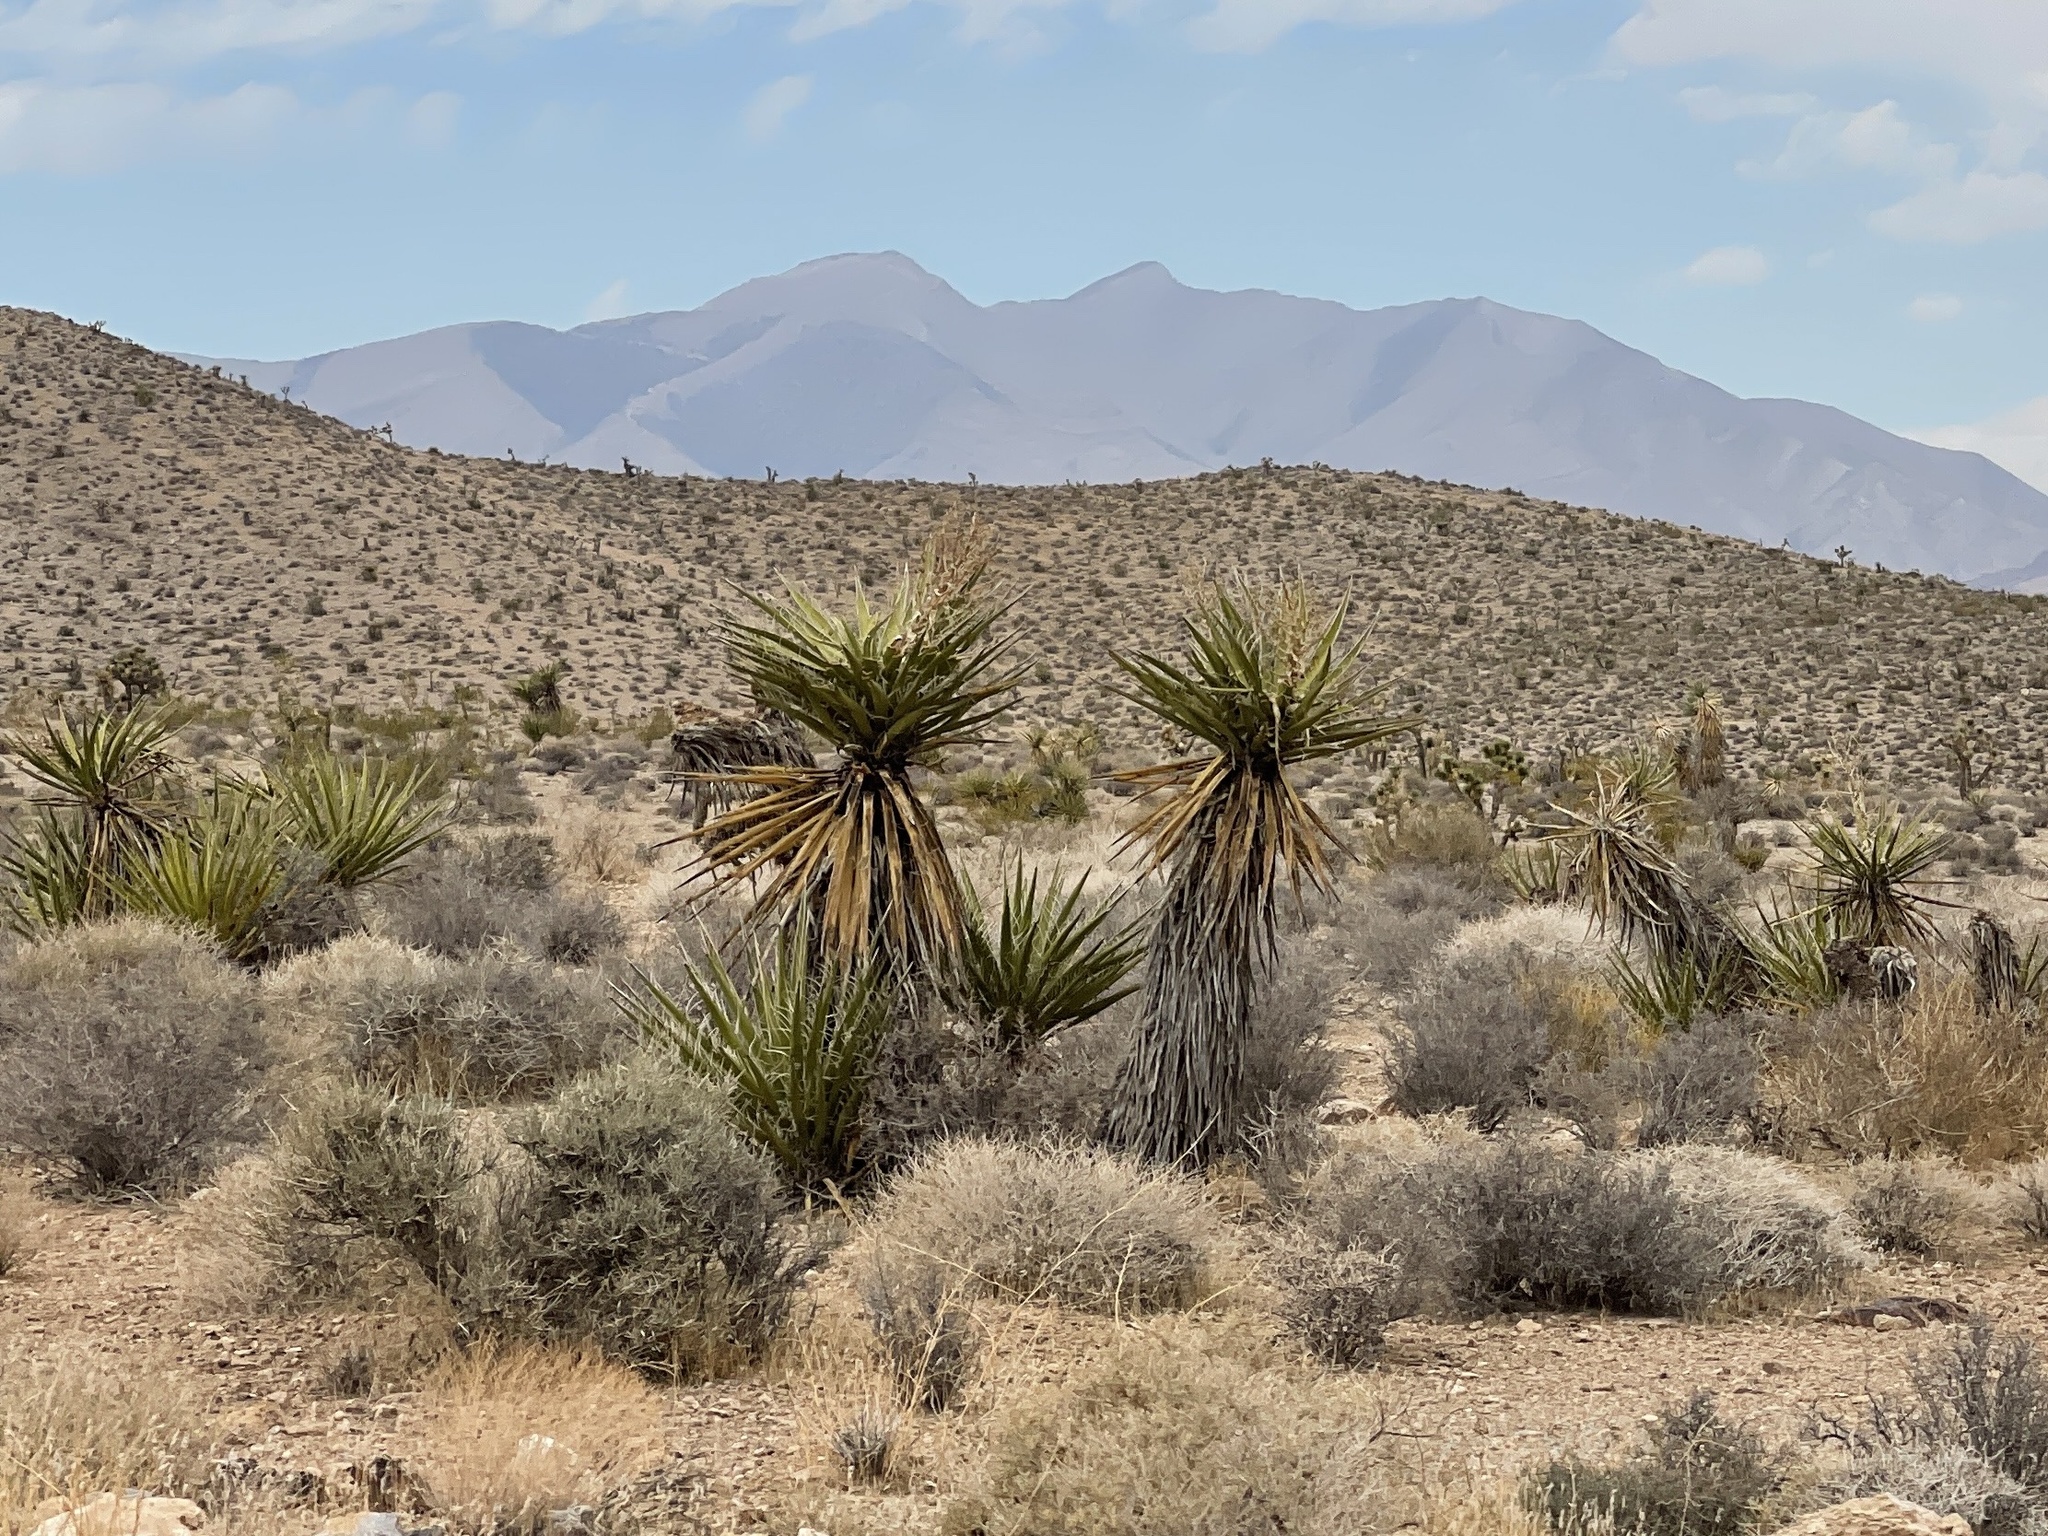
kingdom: Plantae
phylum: Tracheophyta
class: Liliopsida
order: Asparagales
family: Asparagaceae
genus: Yucca
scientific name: Yucca schidigera
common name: Mojave yucca
